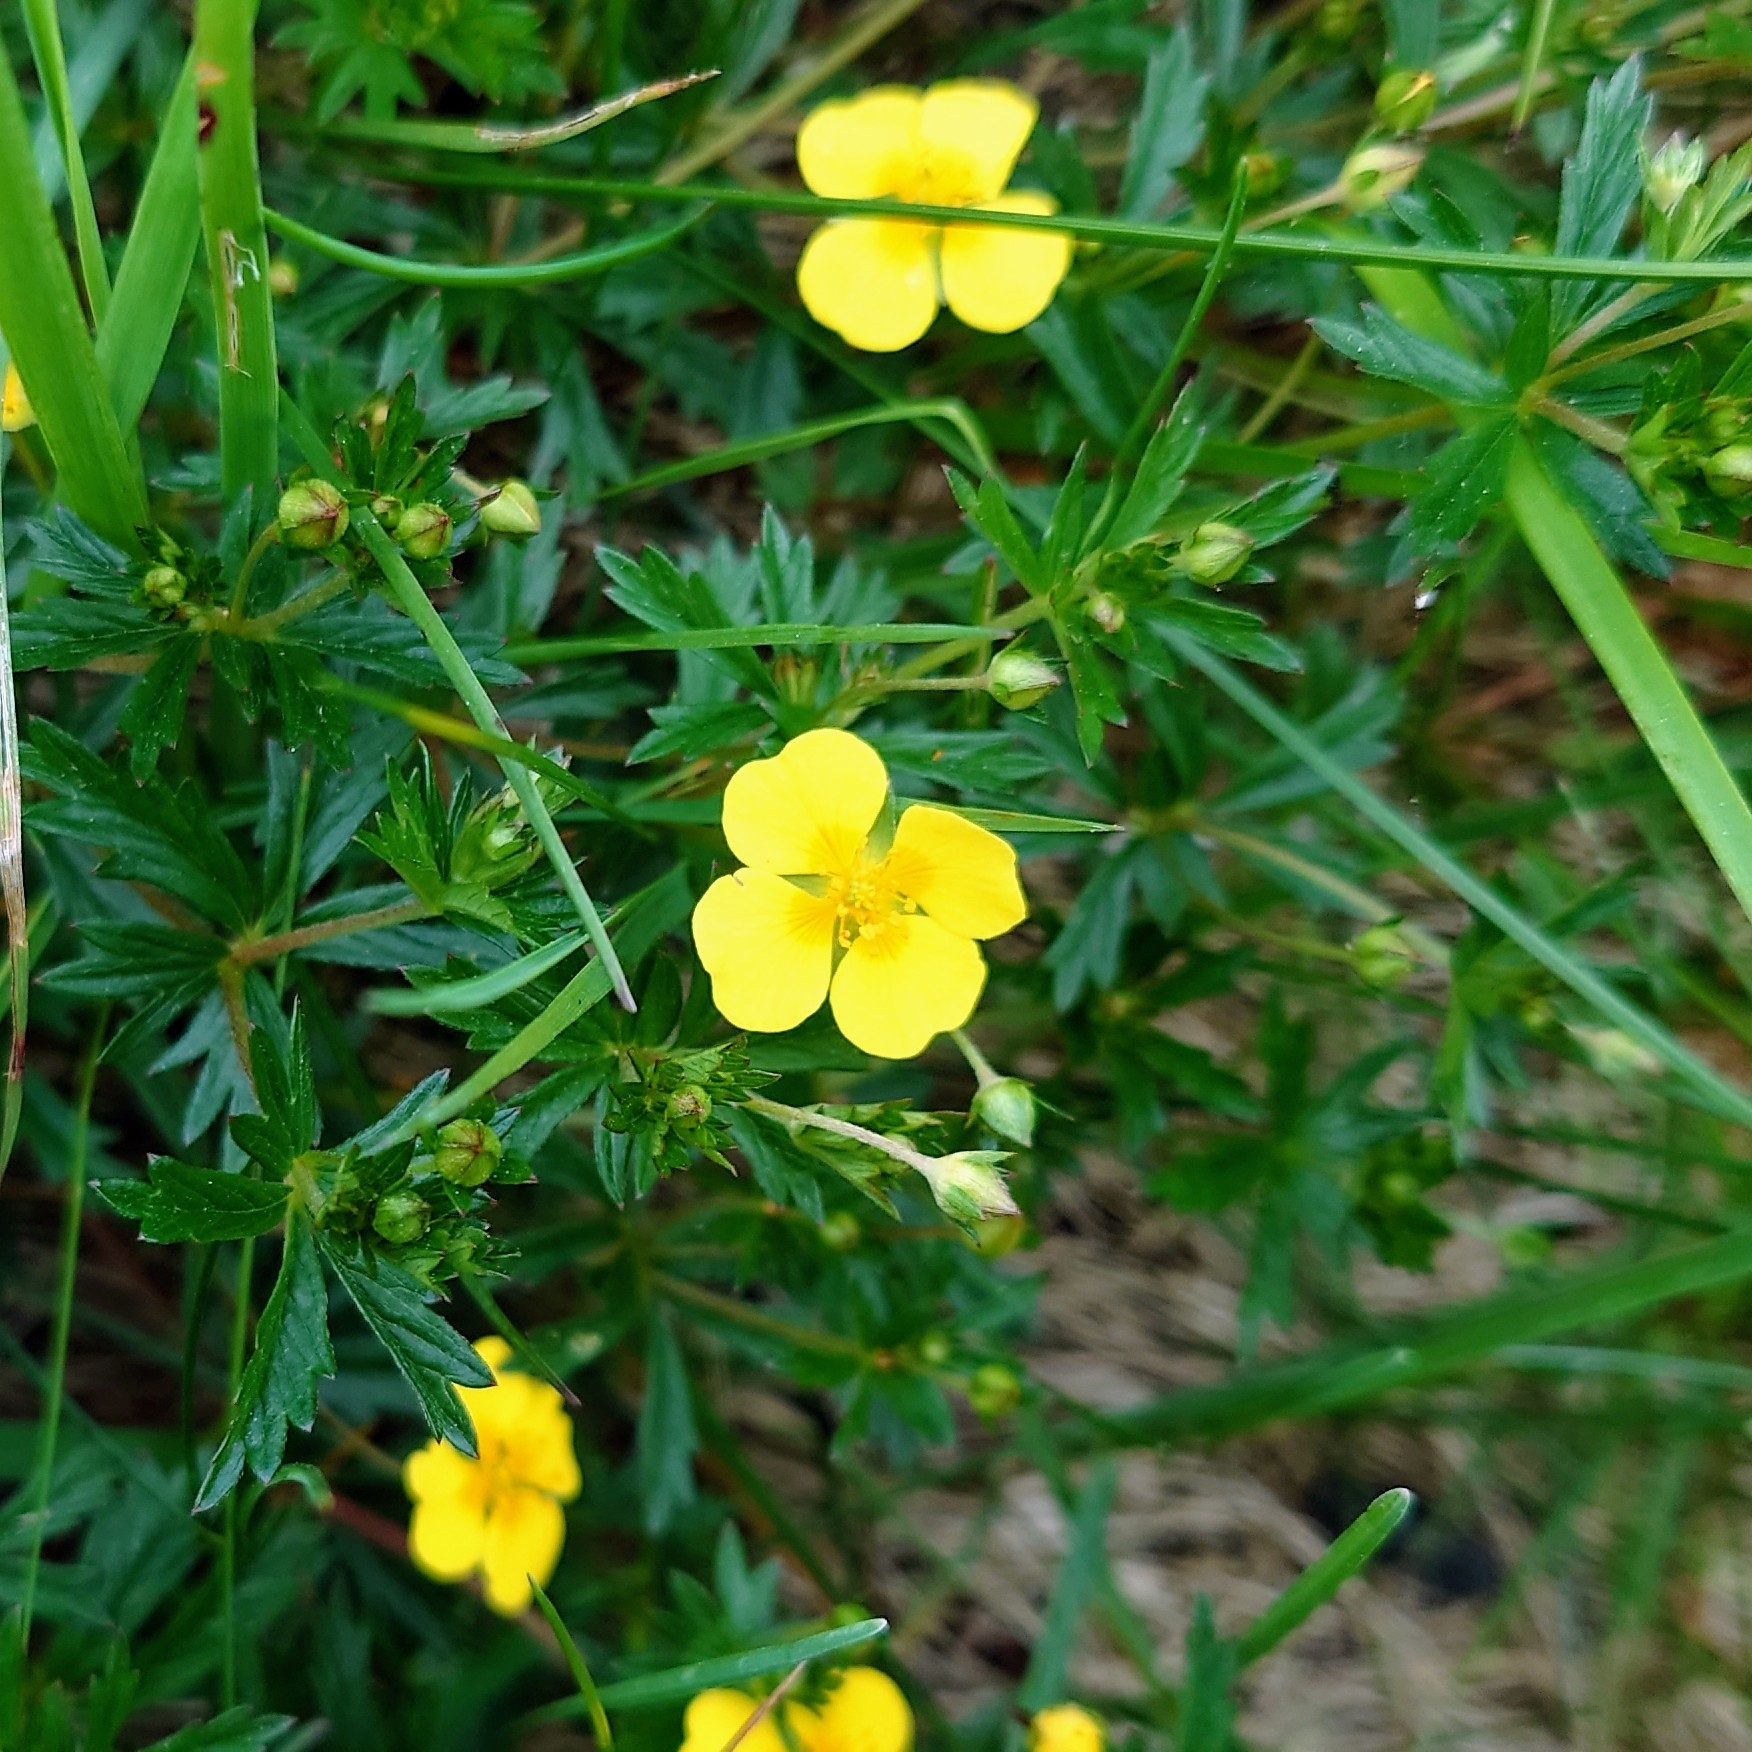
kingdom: Plantae
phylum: Tracheophyta
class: Magnoliopsida
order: Rosales
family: Rosaceae
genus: Potentilla
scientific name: Potentilla erecta
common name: Tormentil
